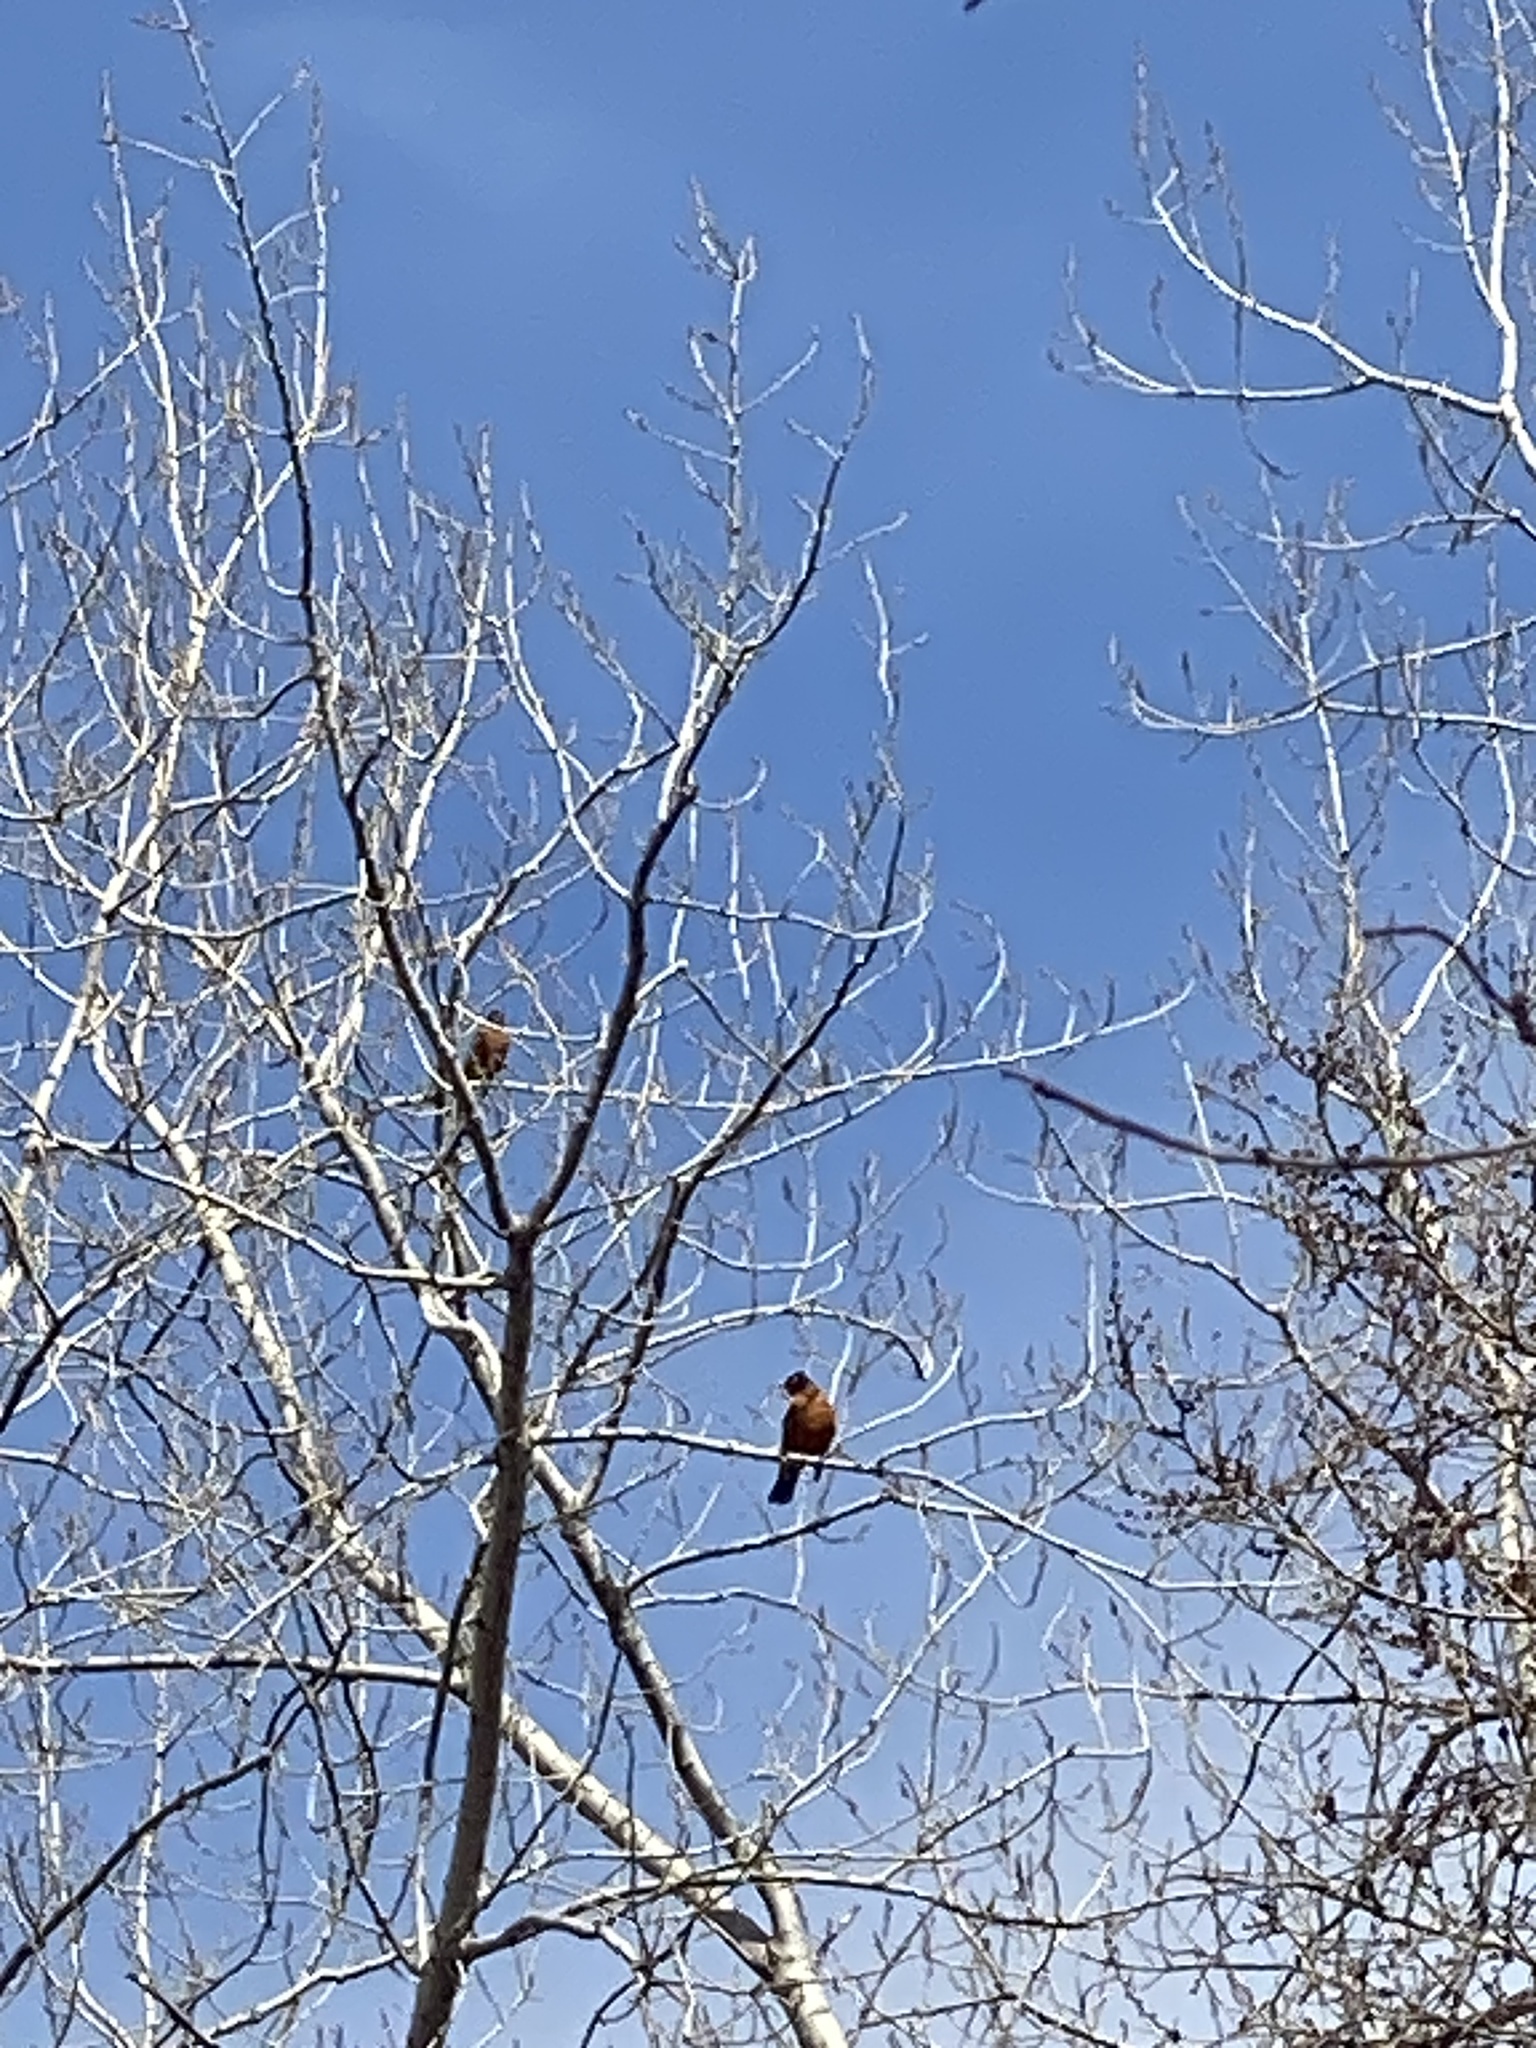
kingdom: Animalia
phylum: Chordata
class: Aves
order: Passeriformes
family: Turdidae
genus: Turdus
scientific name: Turdus migratorius
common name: American robin
